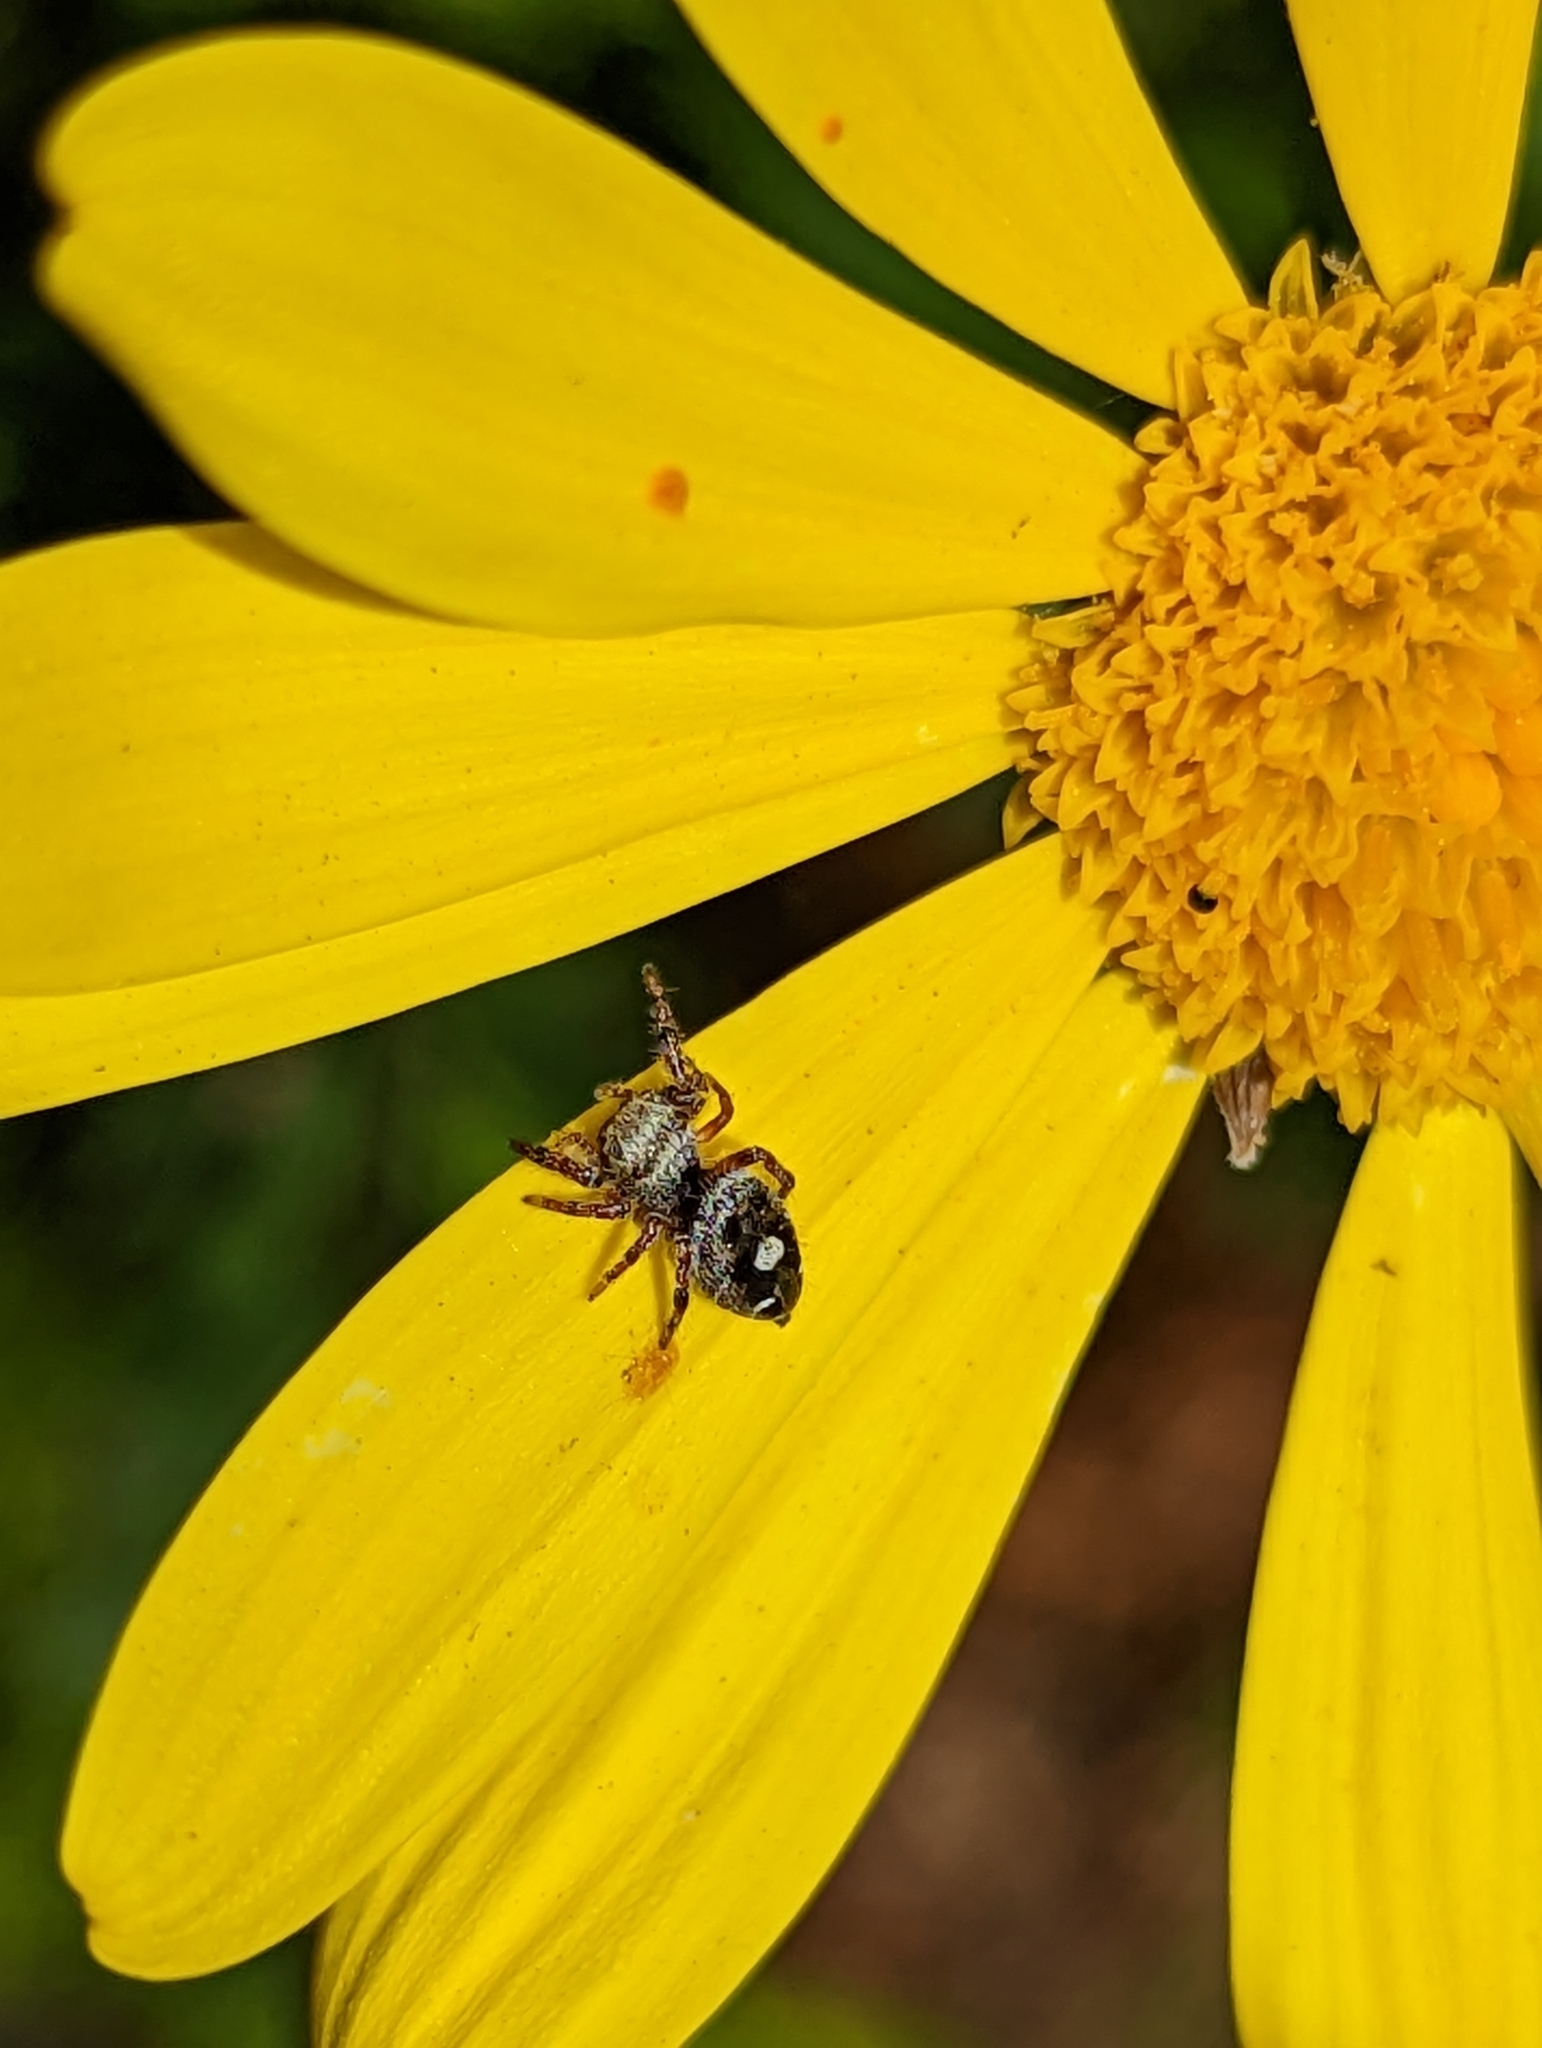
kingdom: Animalia
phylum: Arthropoda
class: Arachnida
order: Araneae
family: Salticidae
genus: Phidippus
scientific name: Phidippus audax
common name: Bold jumper
